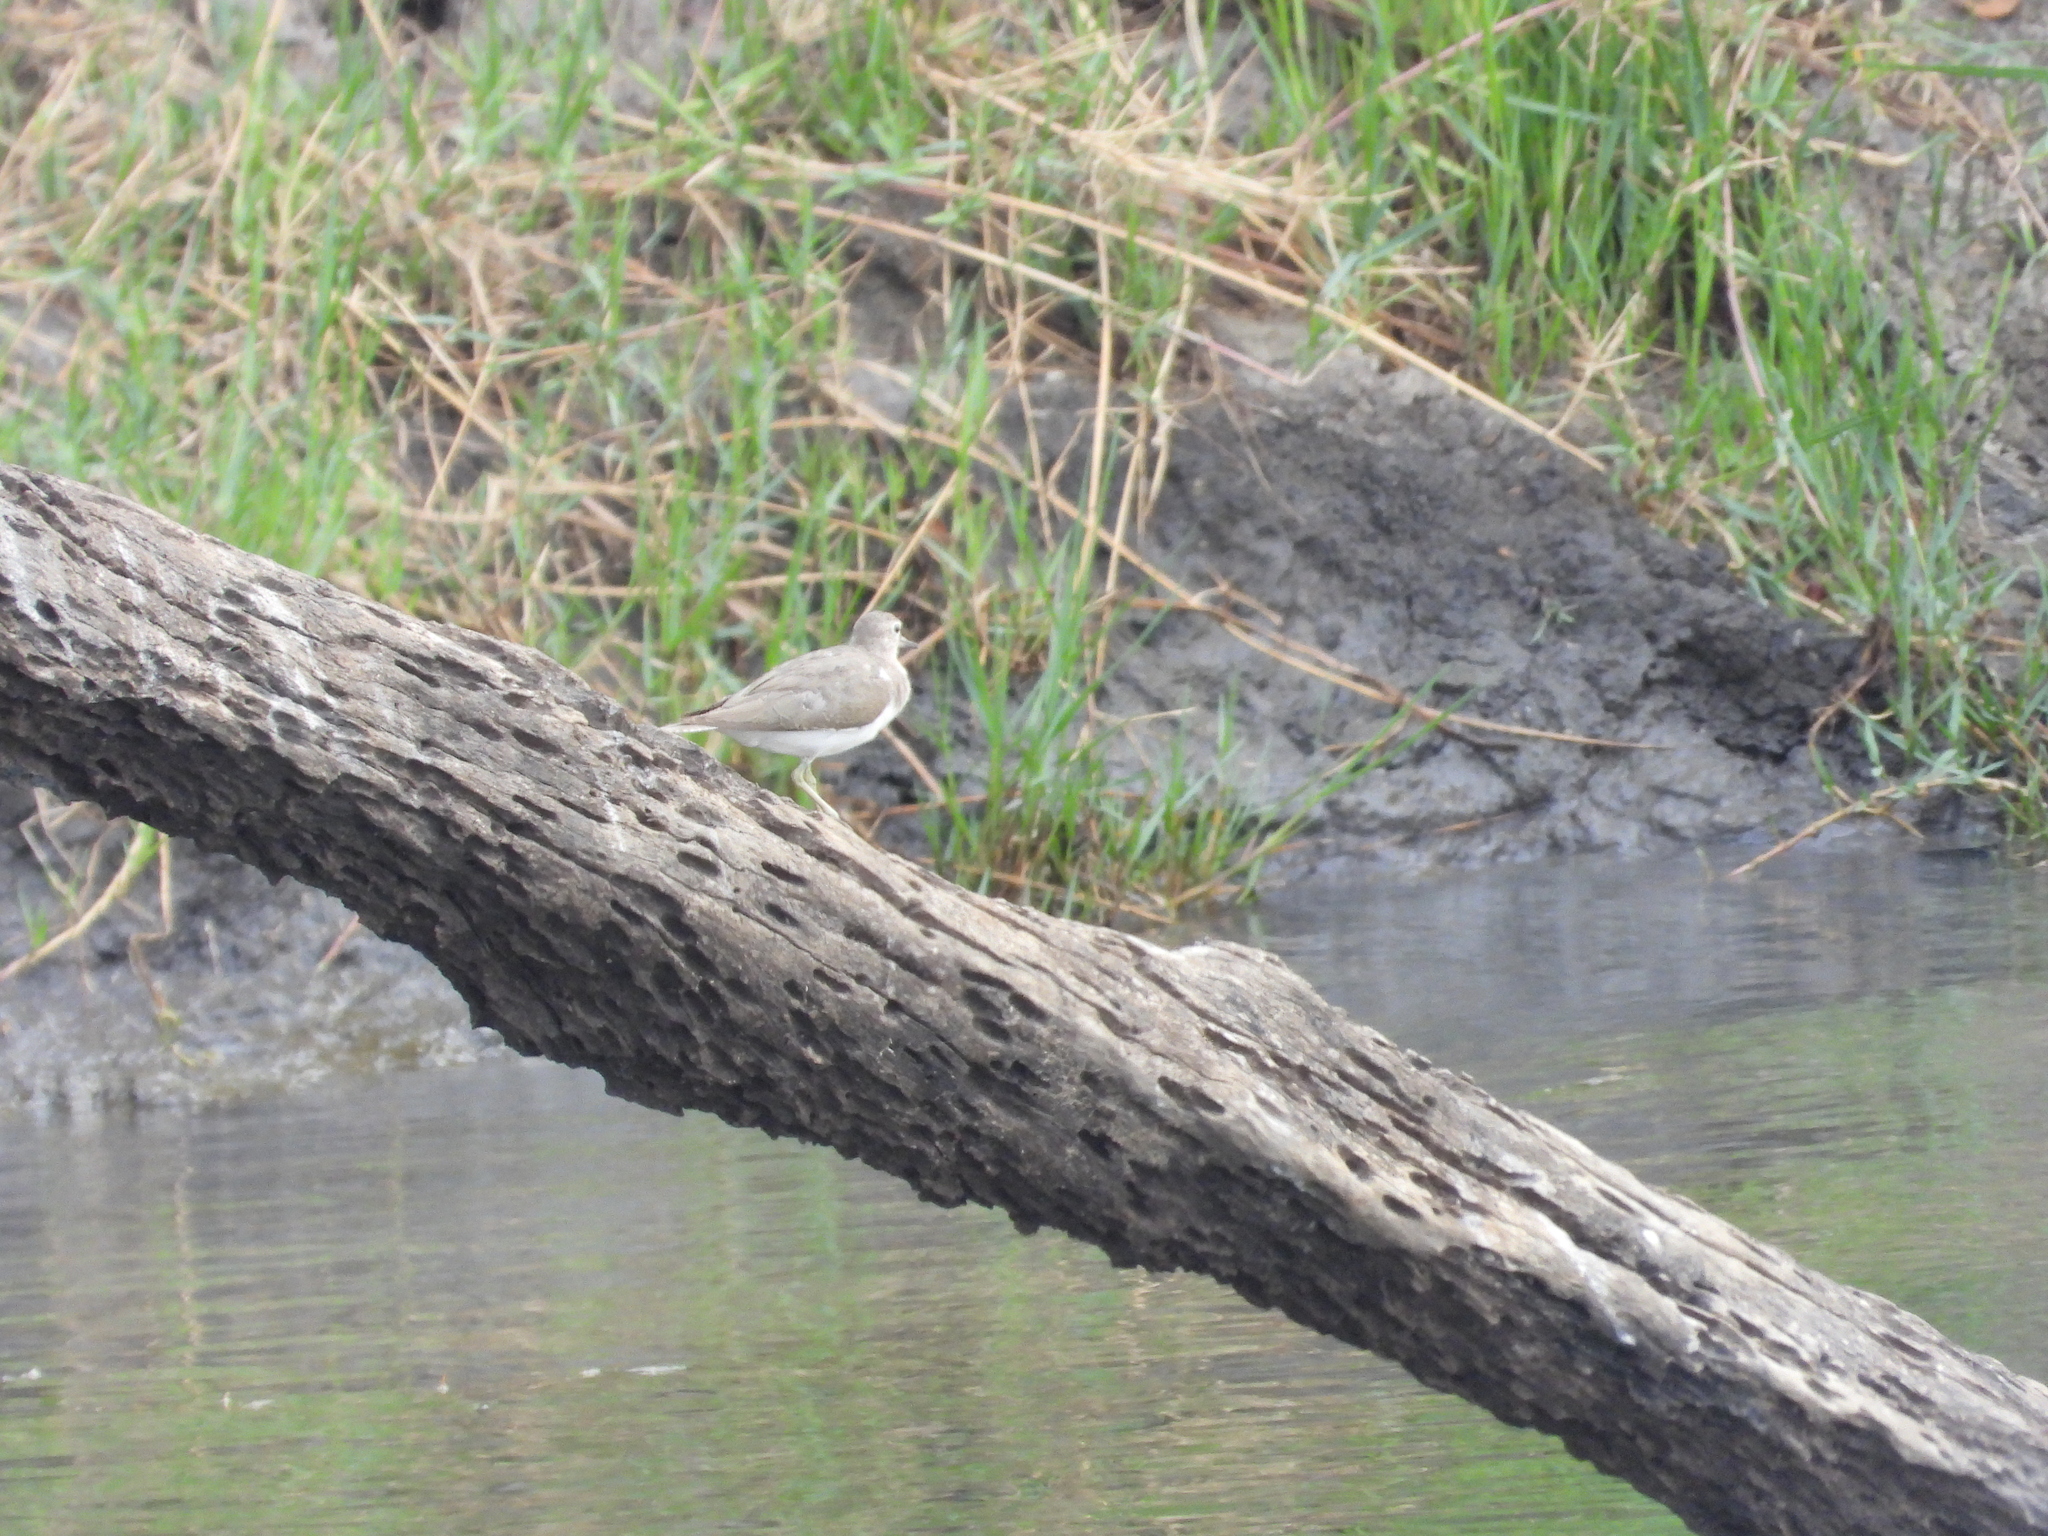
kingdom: Animalia
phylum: Chordata
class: Aves
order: Charadriiformes
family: Scolopacidae
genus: Actitis
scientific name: Actitis hypoleucos
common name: Common sandpiper
